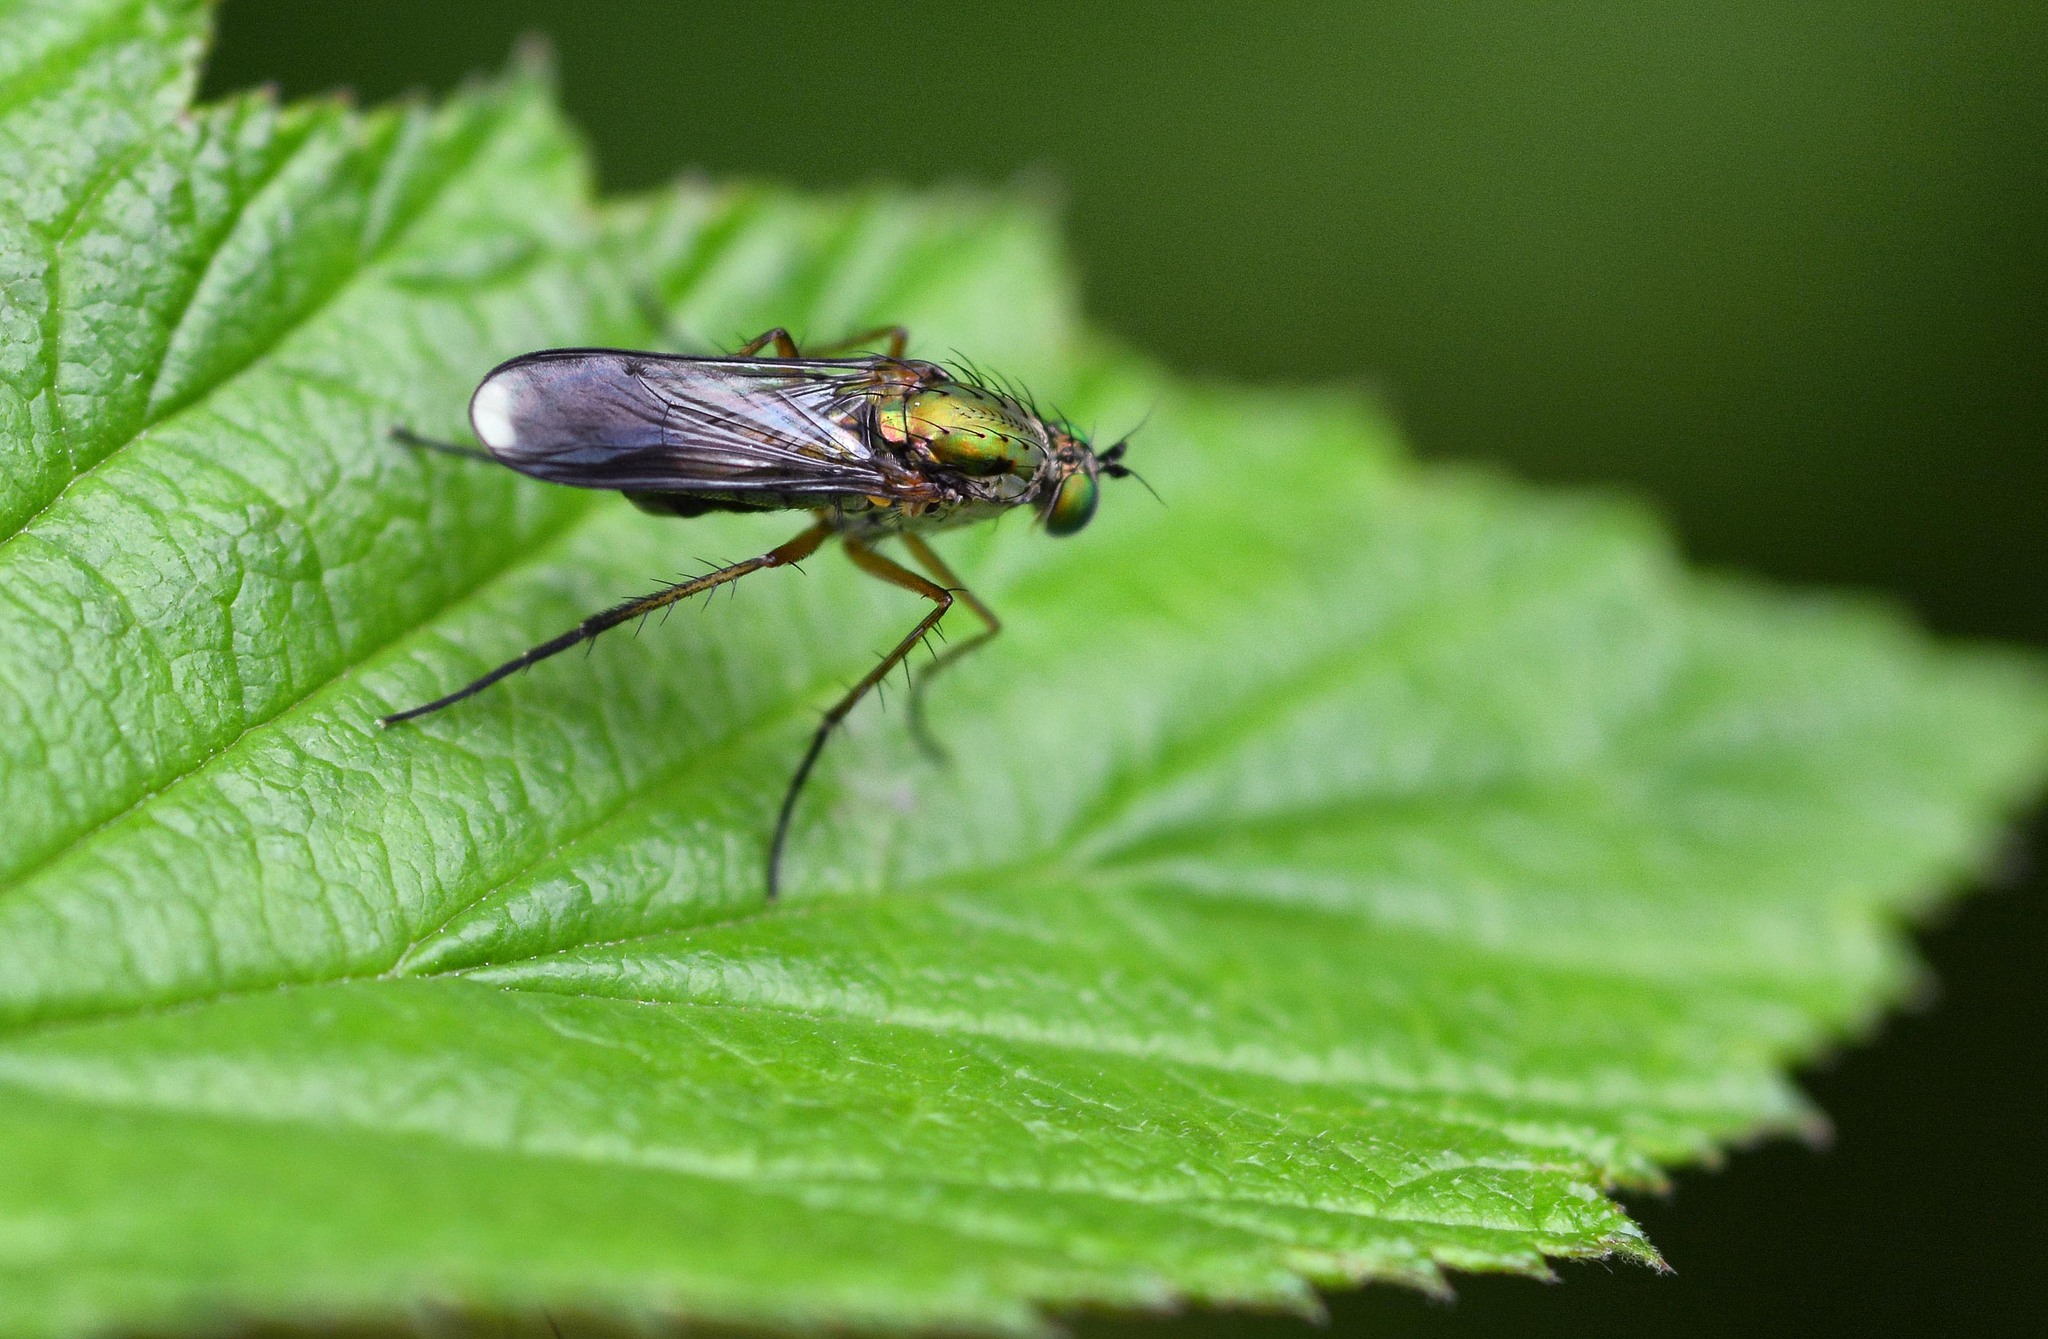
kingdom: Animalia
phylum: Arthropoda
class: Insecta
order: Diptera
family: Dolichopodidae
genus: Poecilobothrus
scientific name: Poecilobothrus nobilitatus
